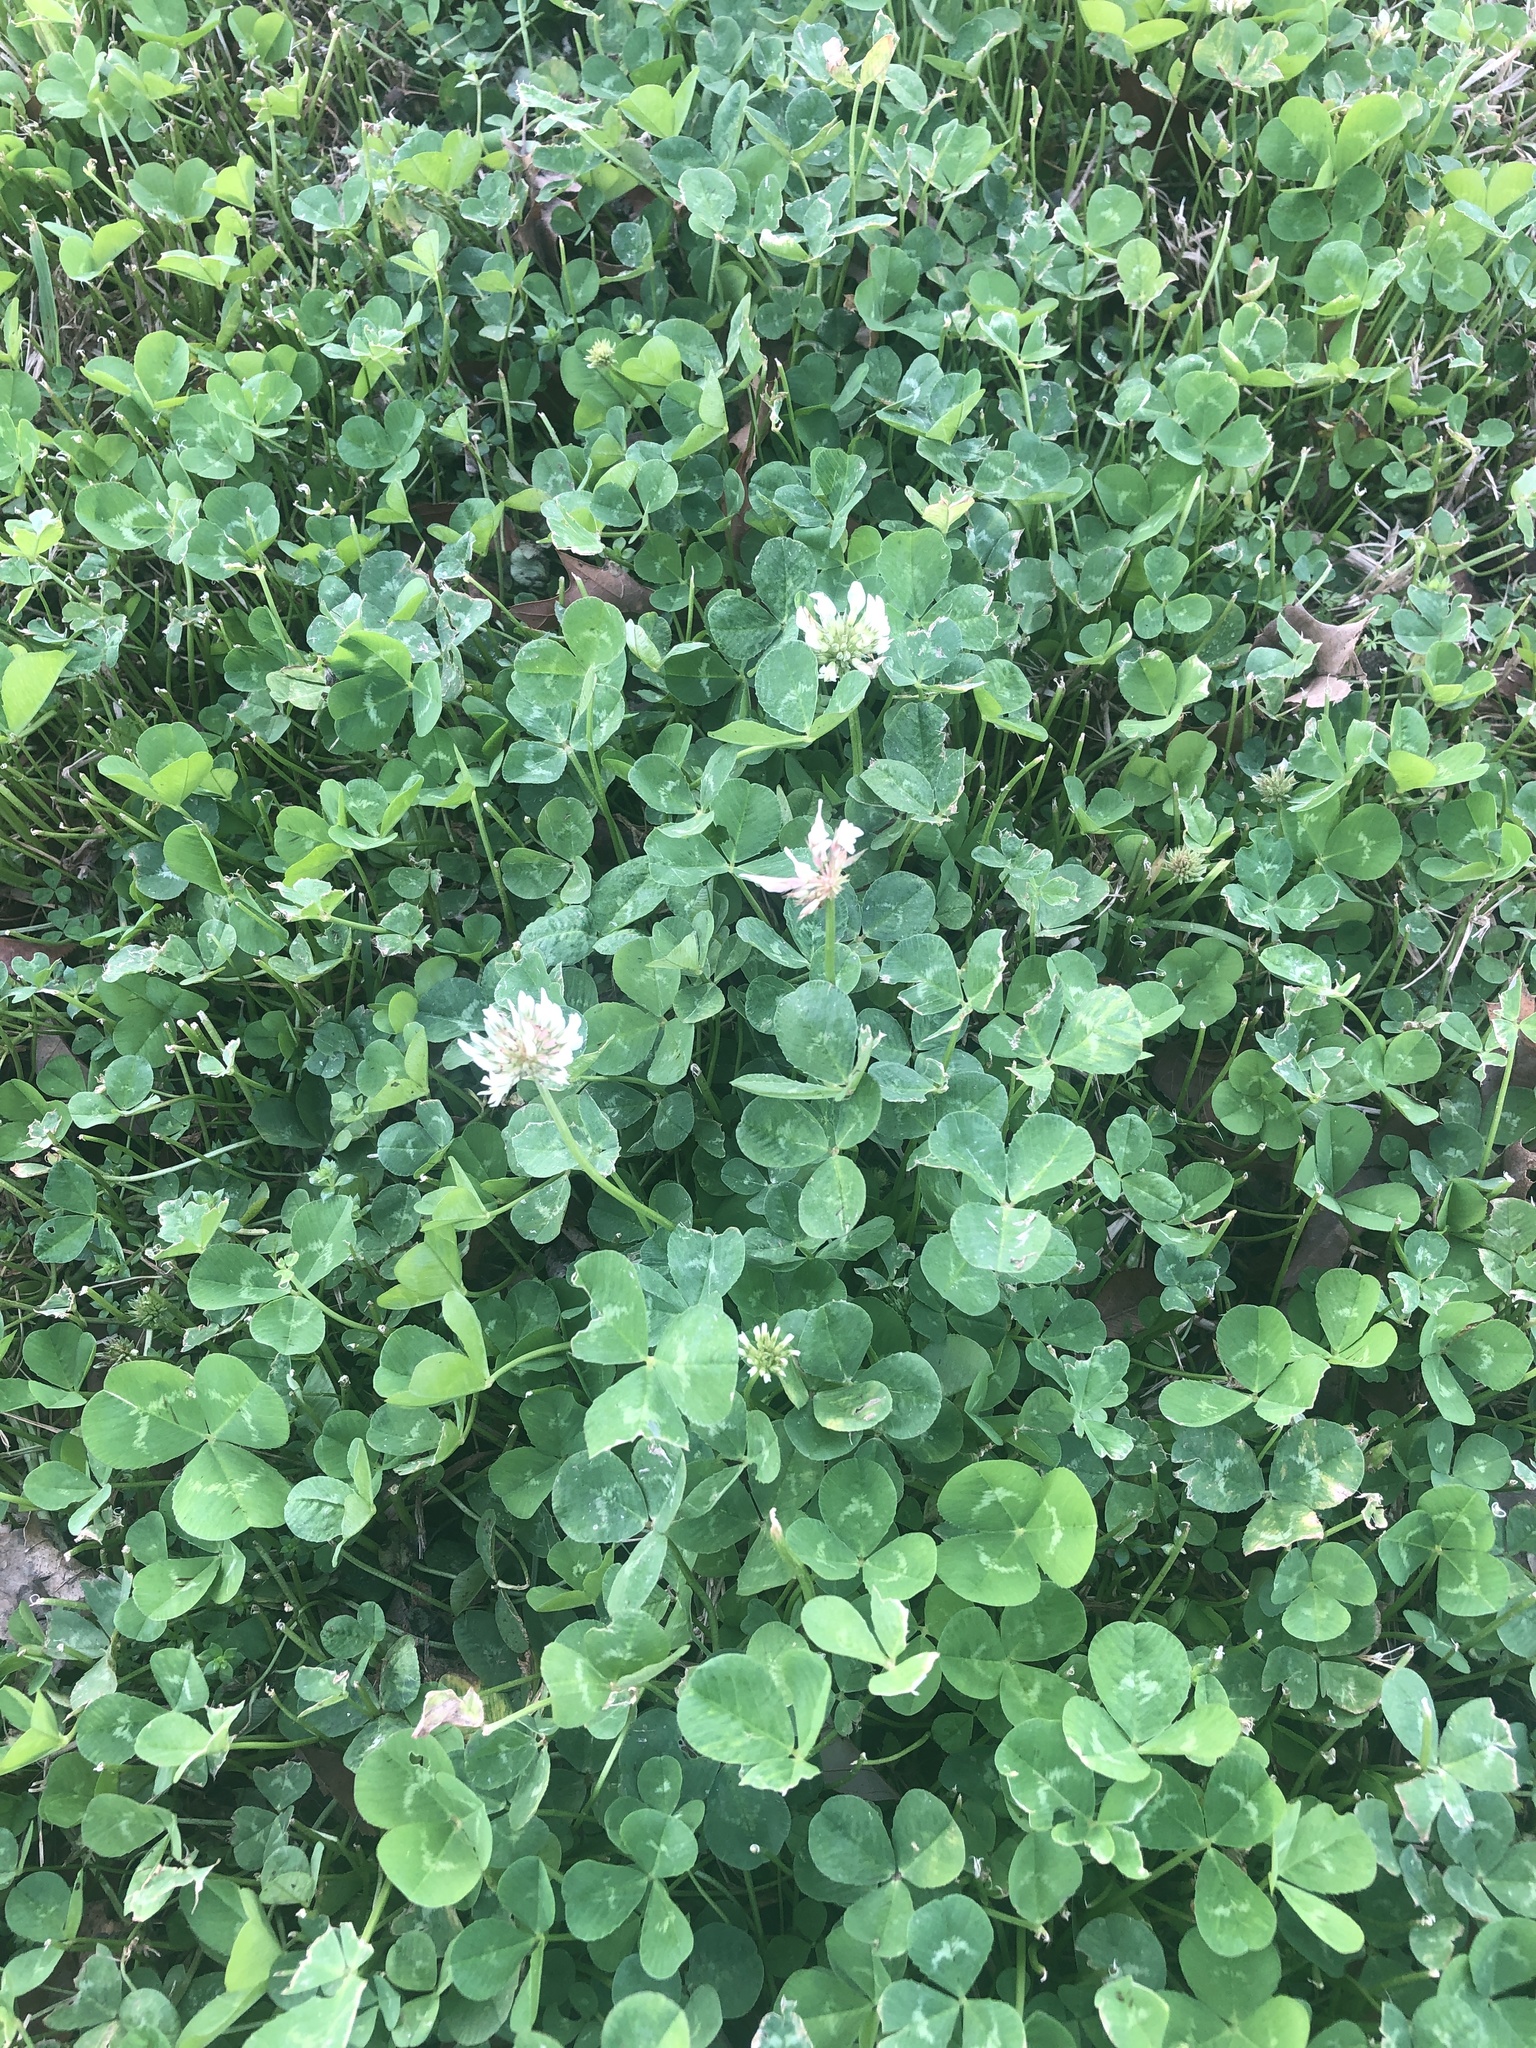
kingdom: Plantae
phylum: Tracheophyta
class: Magnoliopsida
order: Fabales
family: Fabaceae
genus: Trifolium
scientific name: Trifolium repens
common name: White clover
